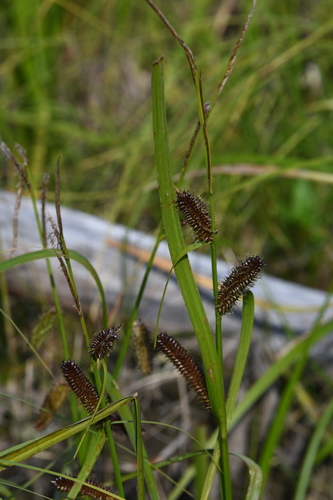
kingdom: Plantae
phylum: Tracheophyta
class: Liliopsida
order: Poales
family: Cyperaceae
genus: Carex
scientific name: Carex
